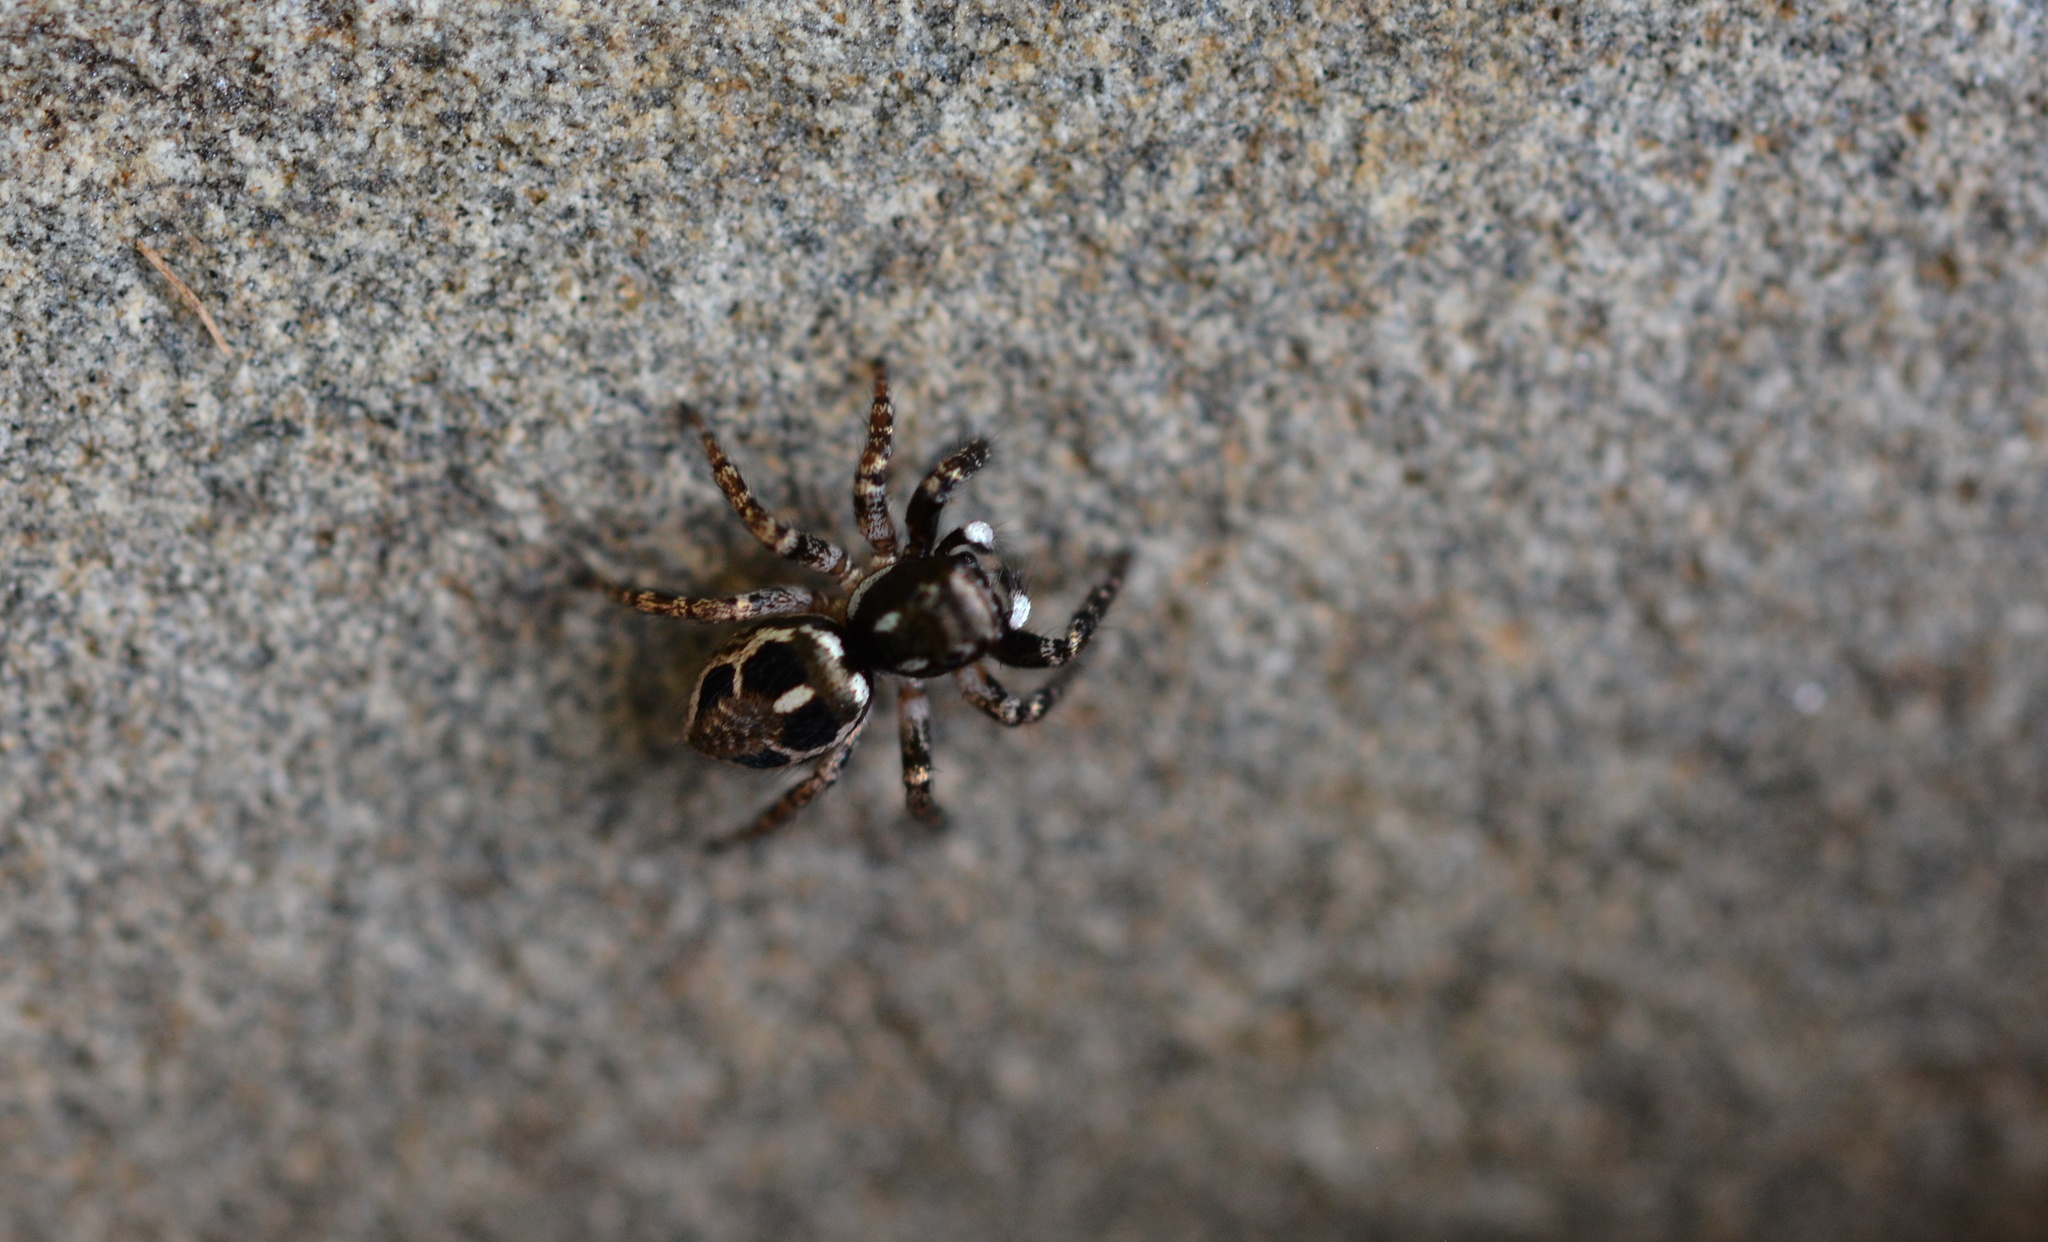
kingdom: Animalia
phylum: Arthropoda
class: Arachnida
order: Araneae
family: Salticidae
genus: Anasaitis
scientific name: Anasaitis canosa
